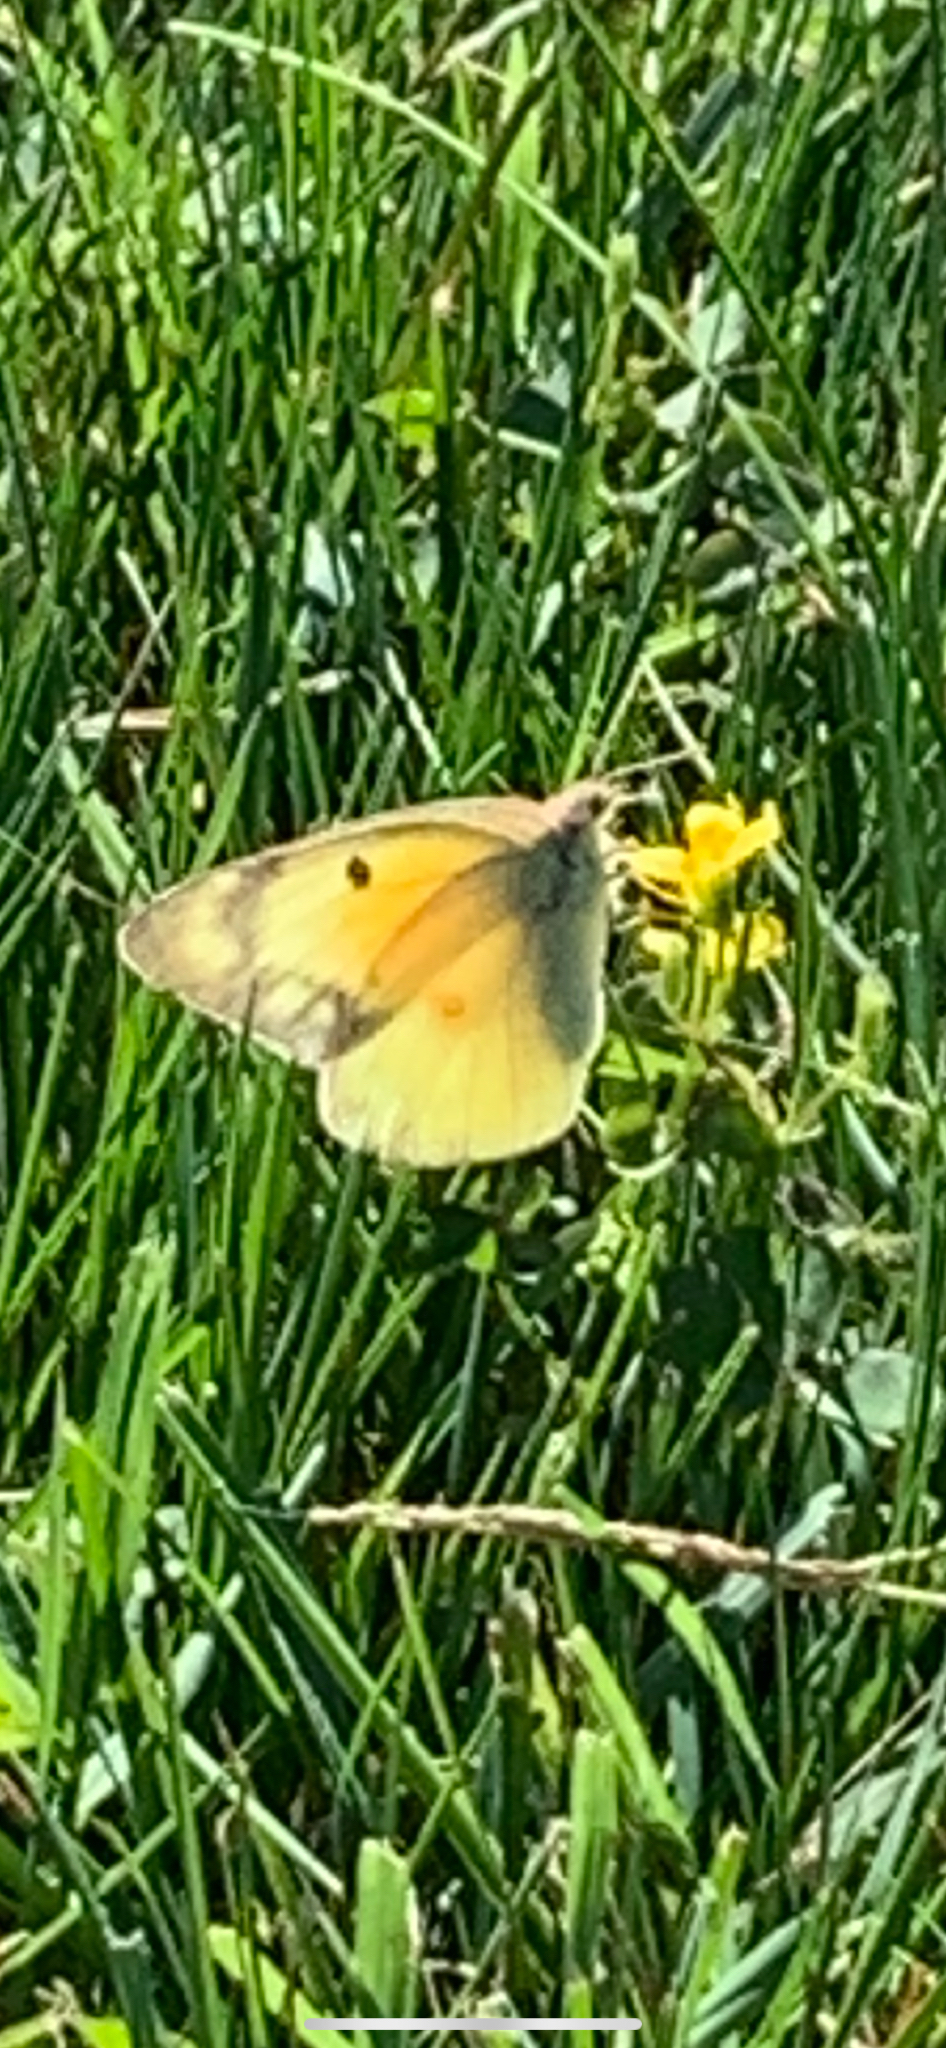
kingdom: Animalia
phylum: Arthropoda
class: Insecta
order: Lepidoptera
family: Pieridae
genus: Colias
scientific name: Colias eurytheme
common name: Alfalfa butterfly
